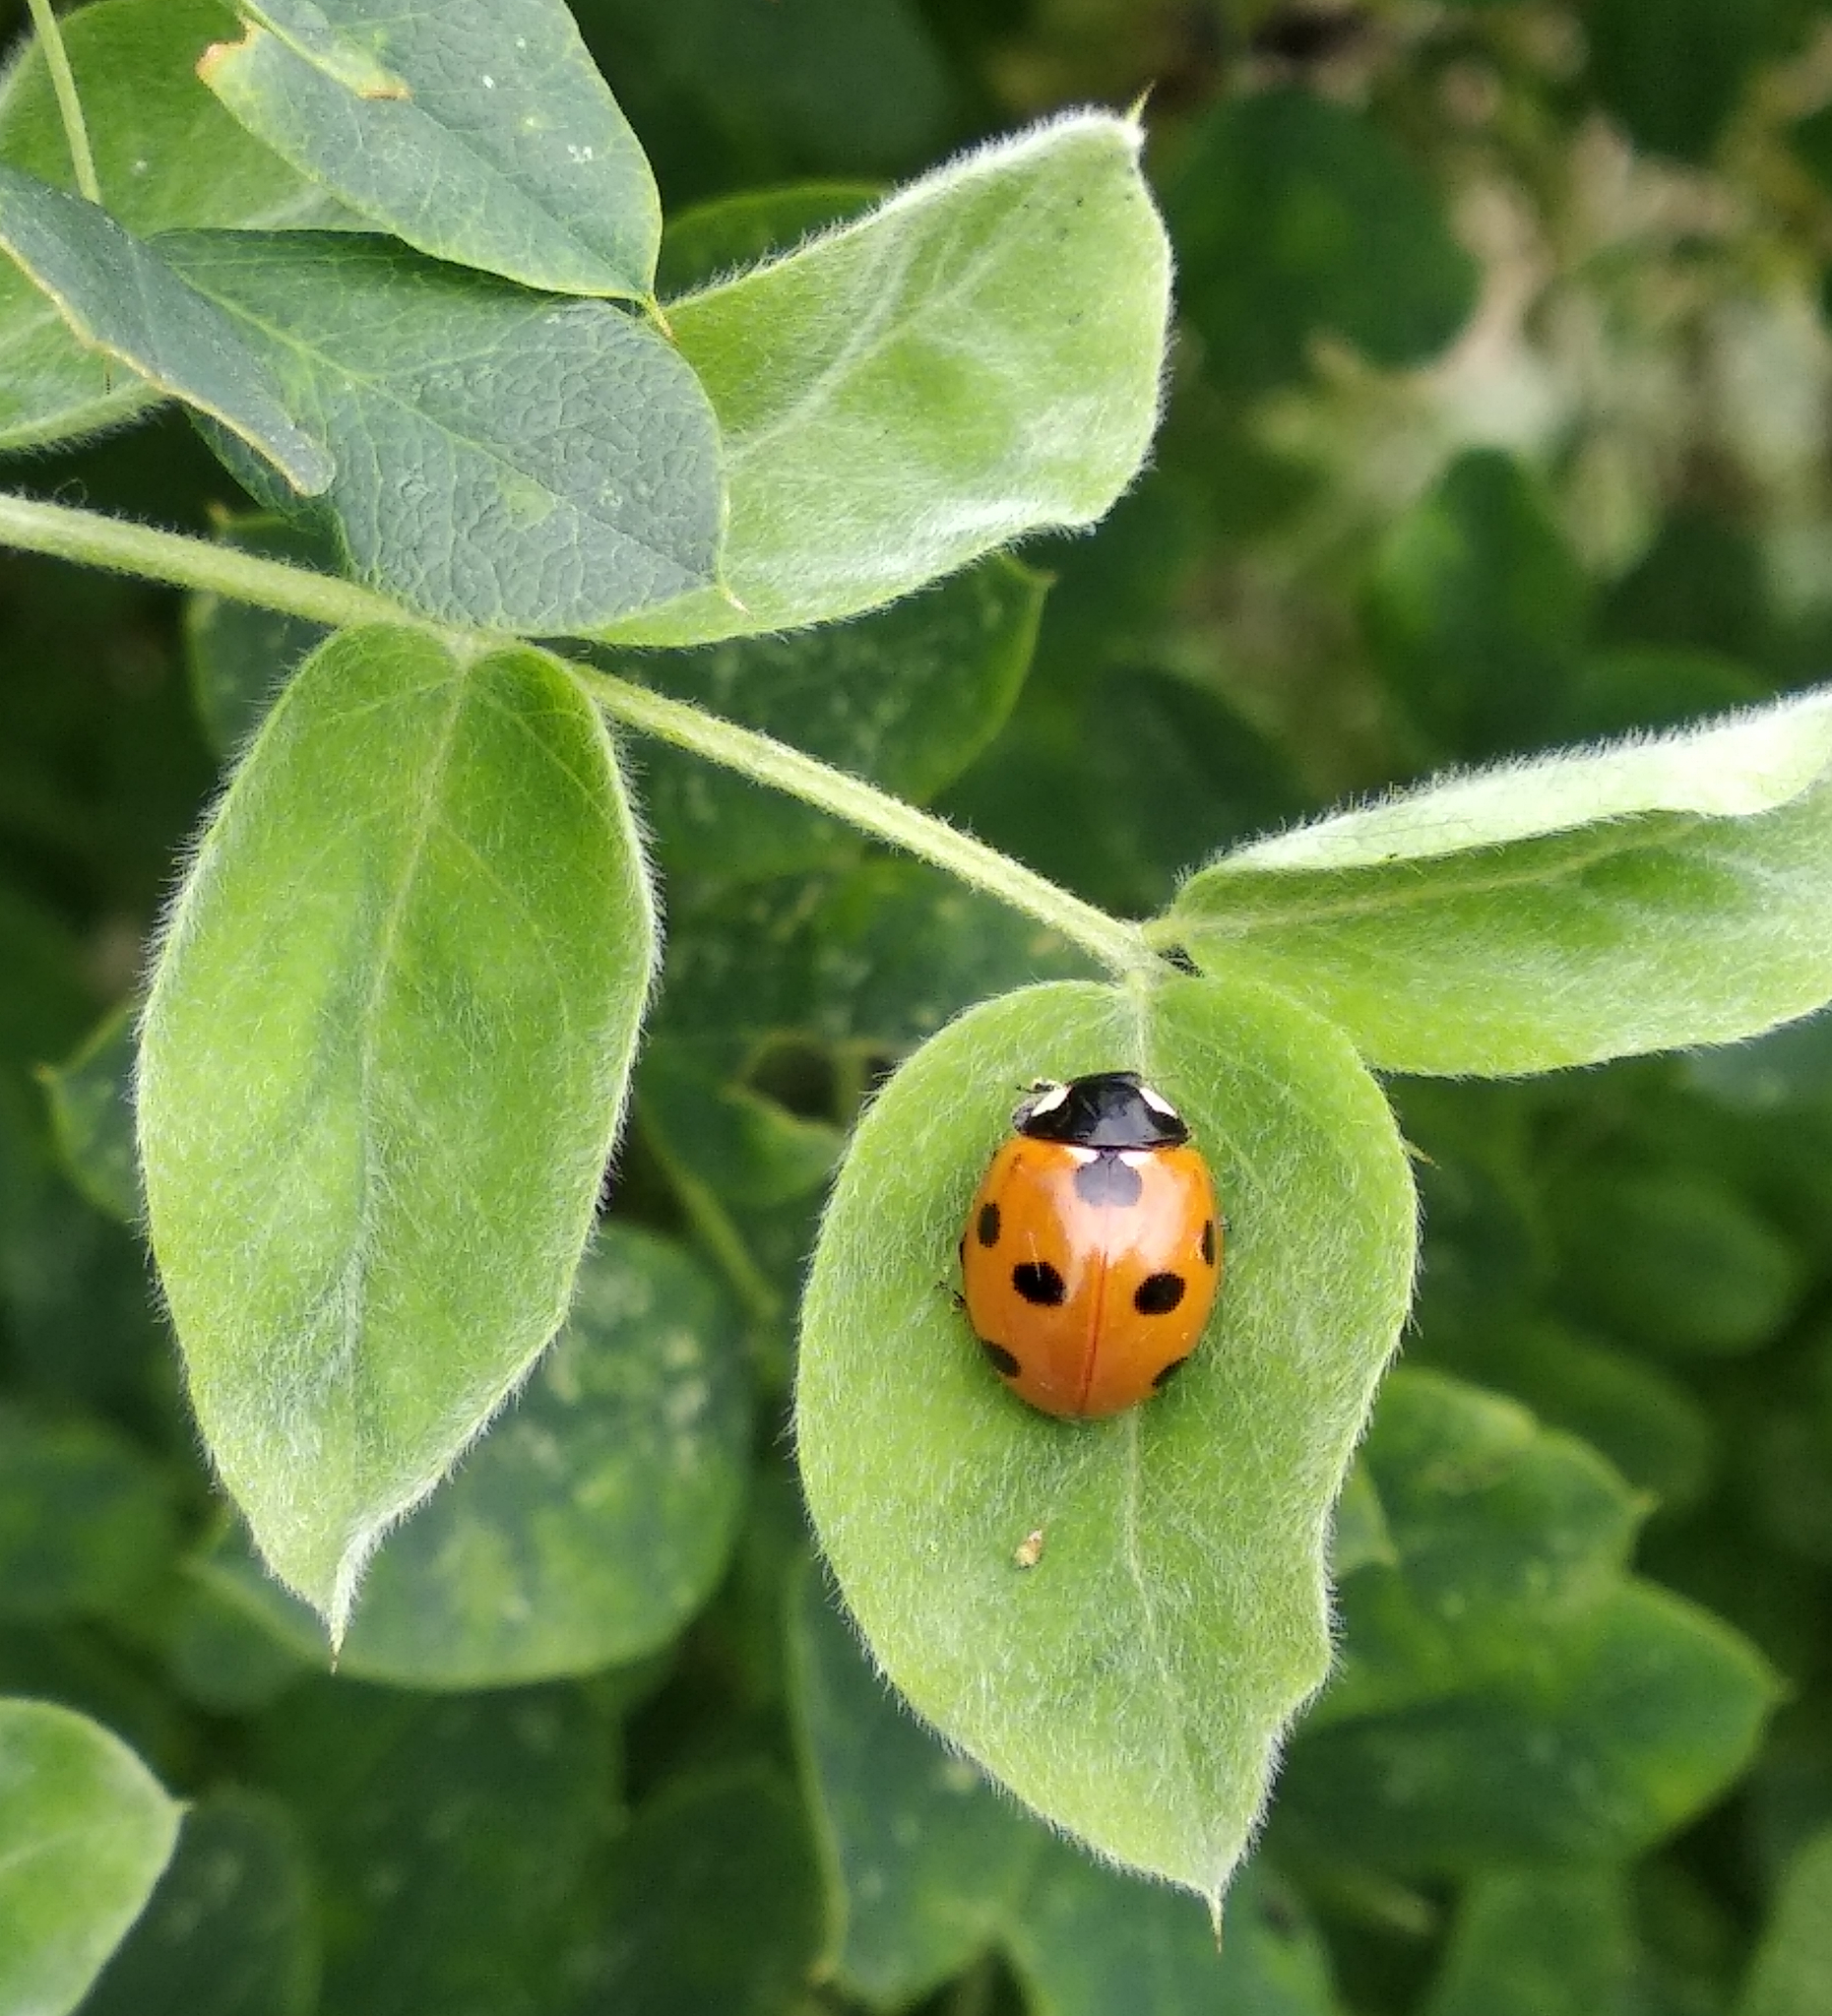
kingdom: Animalia
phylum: Arthropoda
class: Insecta
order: Coleoptera
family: Coccinellidae
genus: Coccinella
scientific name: Coccinella septempunctata
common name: Sevenspotted lady beetle
